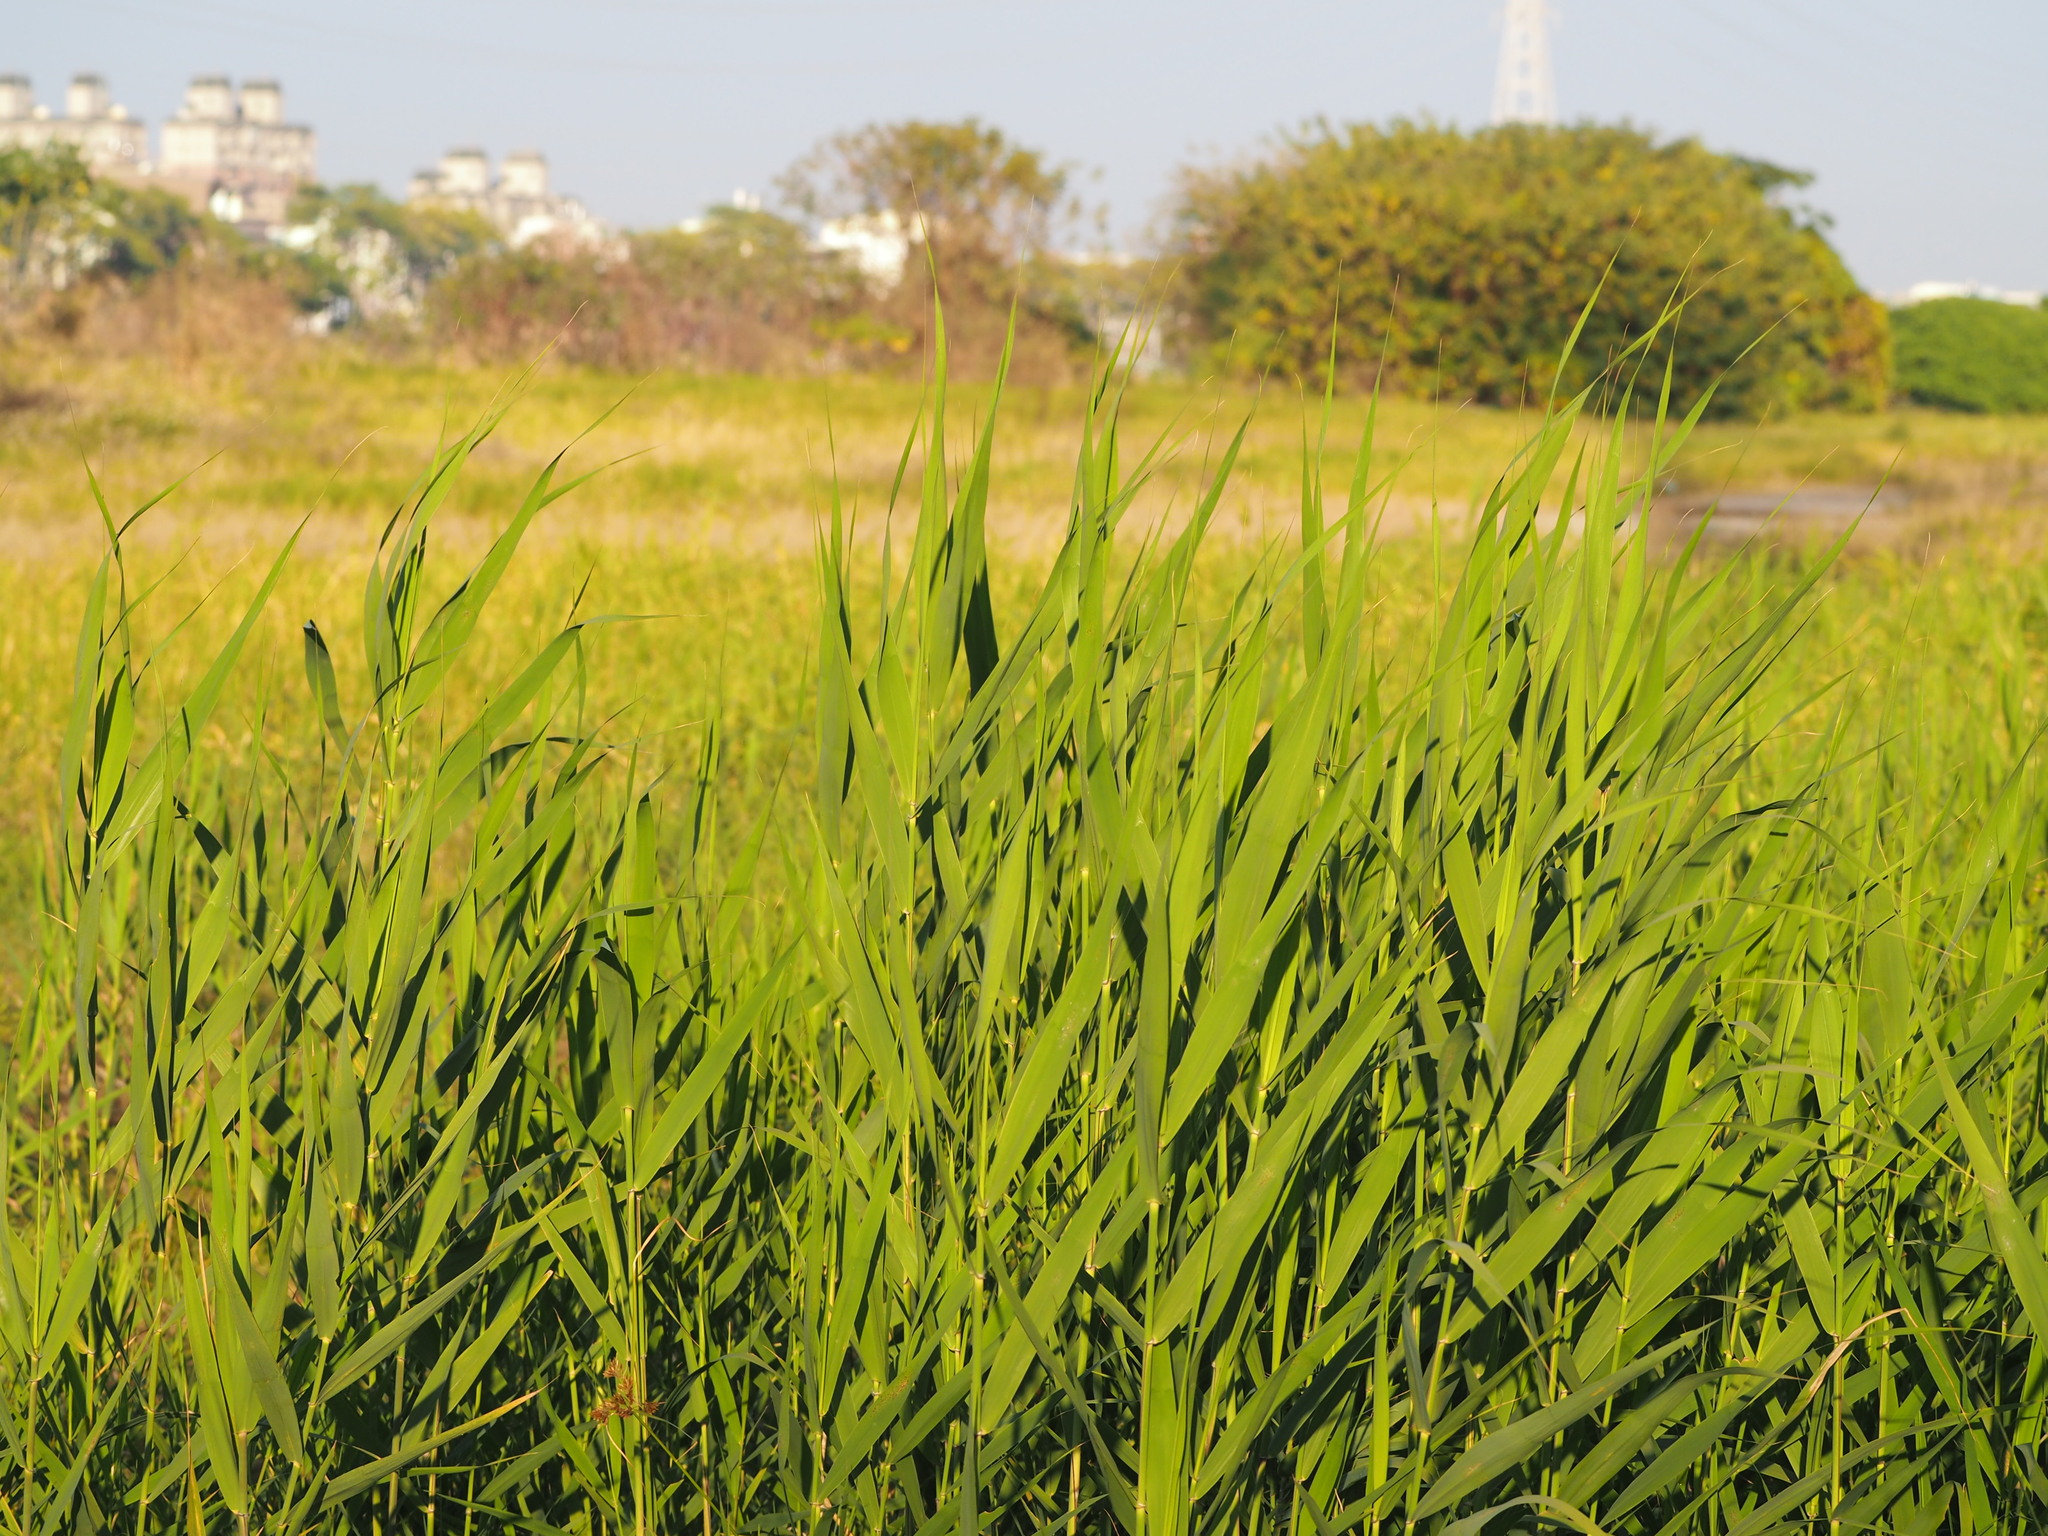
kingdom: Plantae
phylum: Tracheophyta
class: Liliopsida
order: Poales
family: Poaceae
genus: Phragmites
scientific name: Phragmites australis
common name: Common reed
